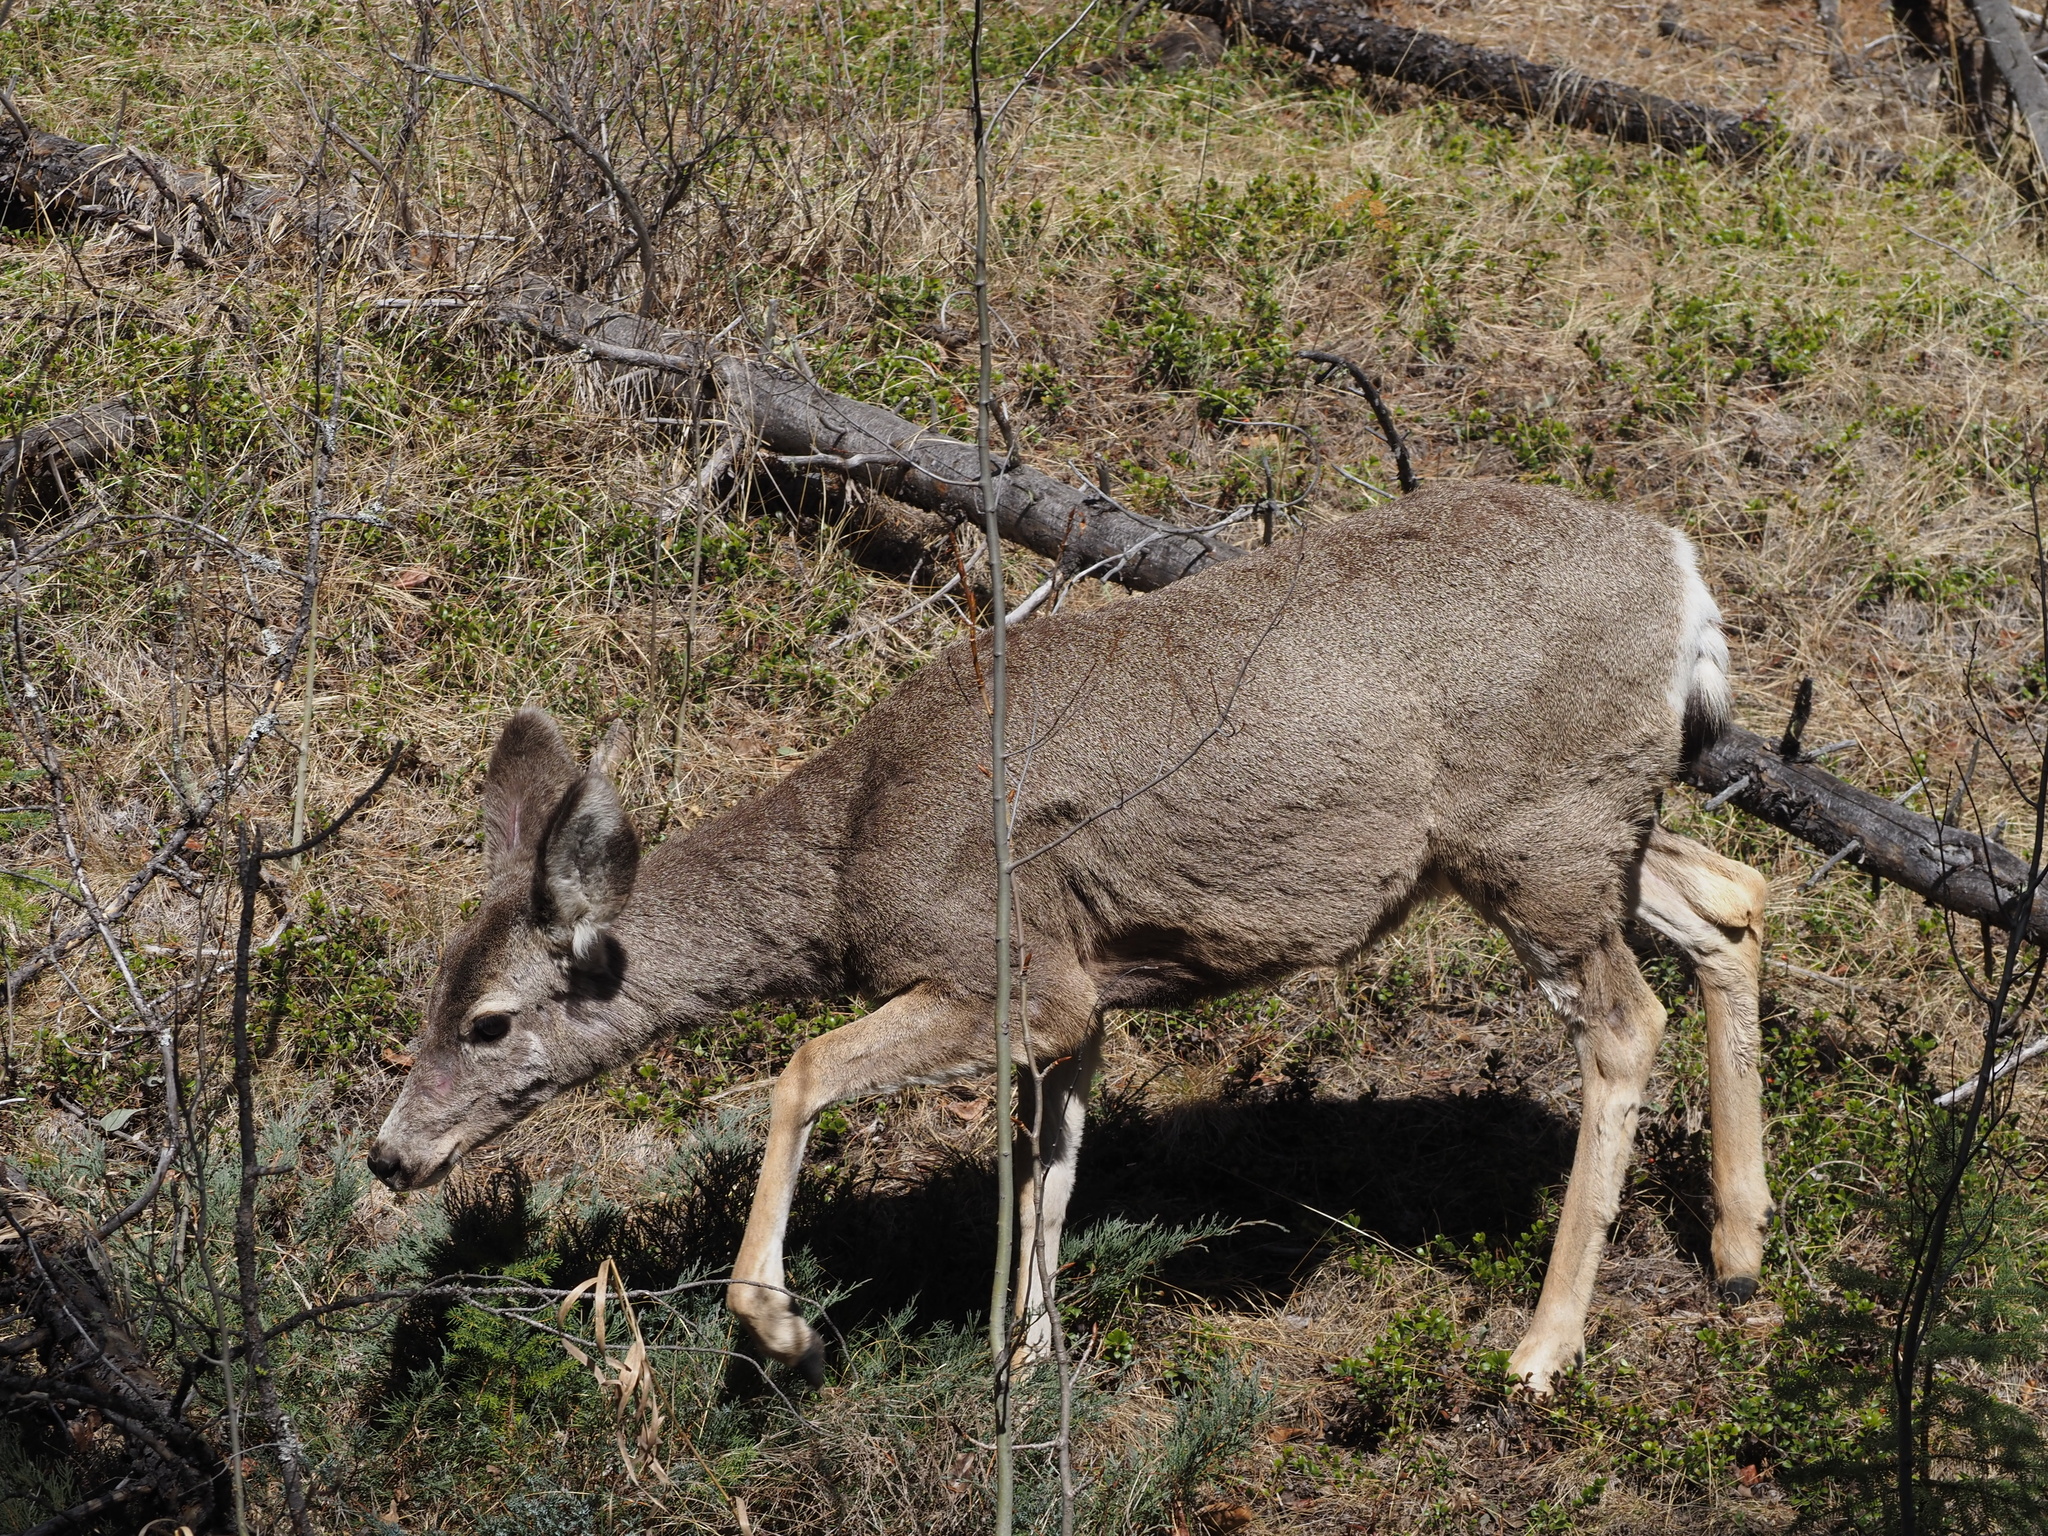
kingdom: Animalia
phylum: Chordata
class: Mammalia
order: Artiodactyla
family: Cervidae
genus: Odocoileus
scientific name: Odocoileus hemionus
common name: Mule deer
